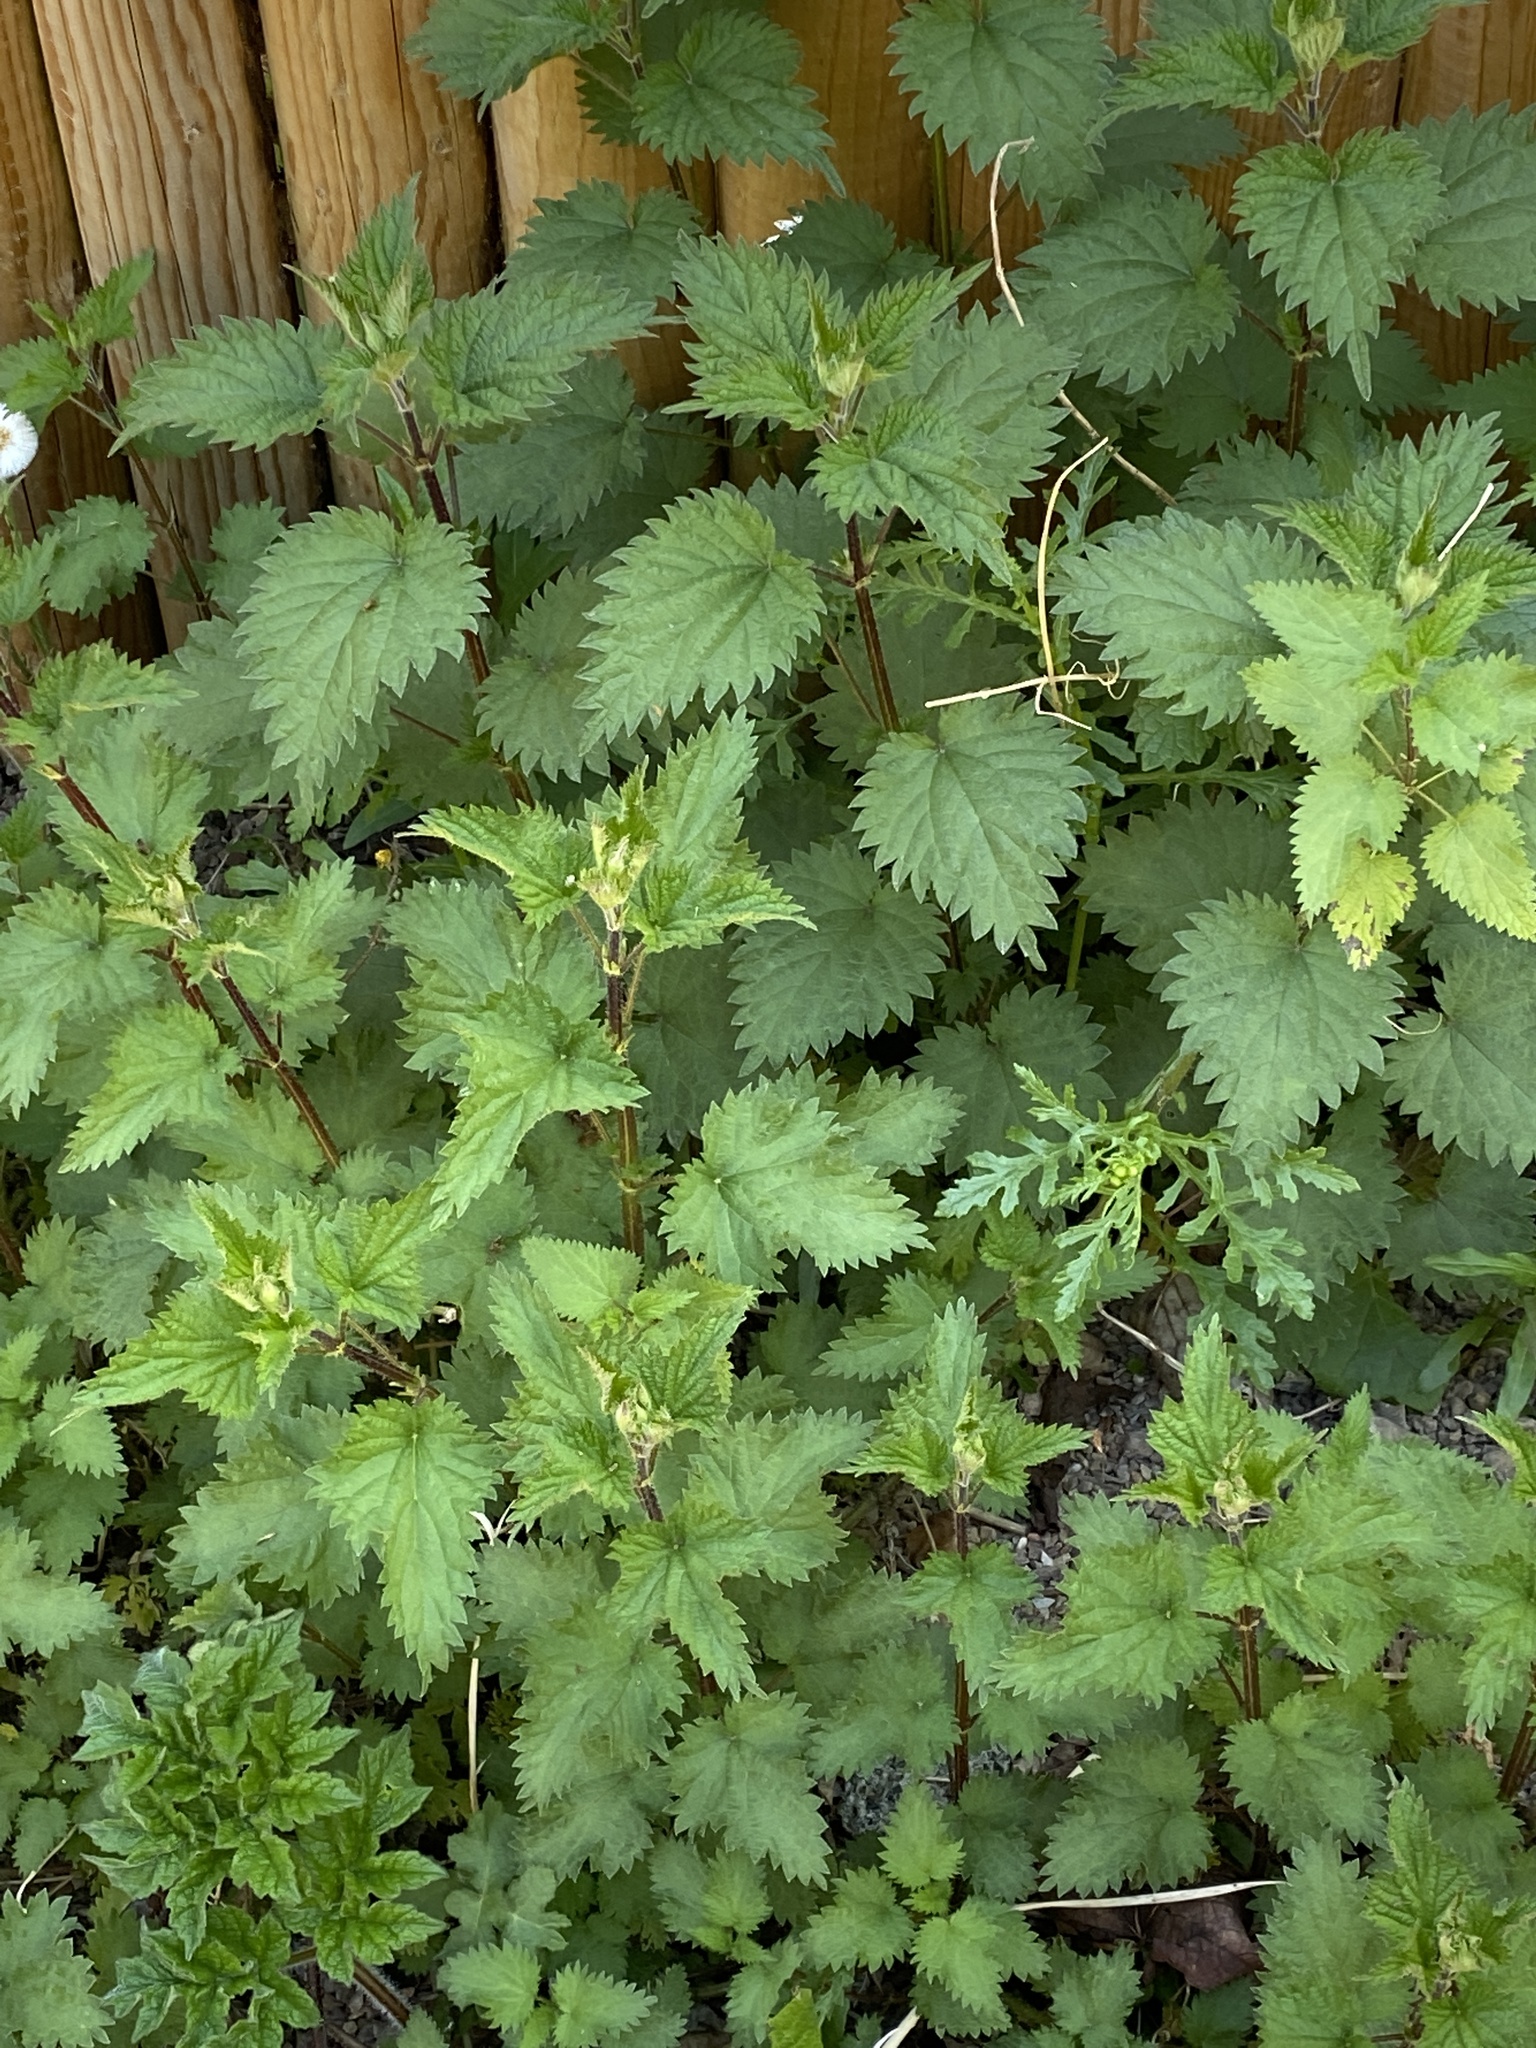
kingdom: Plantae
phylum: Tracheophyta
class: Magnoliopsida
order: Rosales
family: Urticaceae
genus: Urtica
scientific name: Urtica dioica
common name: Common nettle
